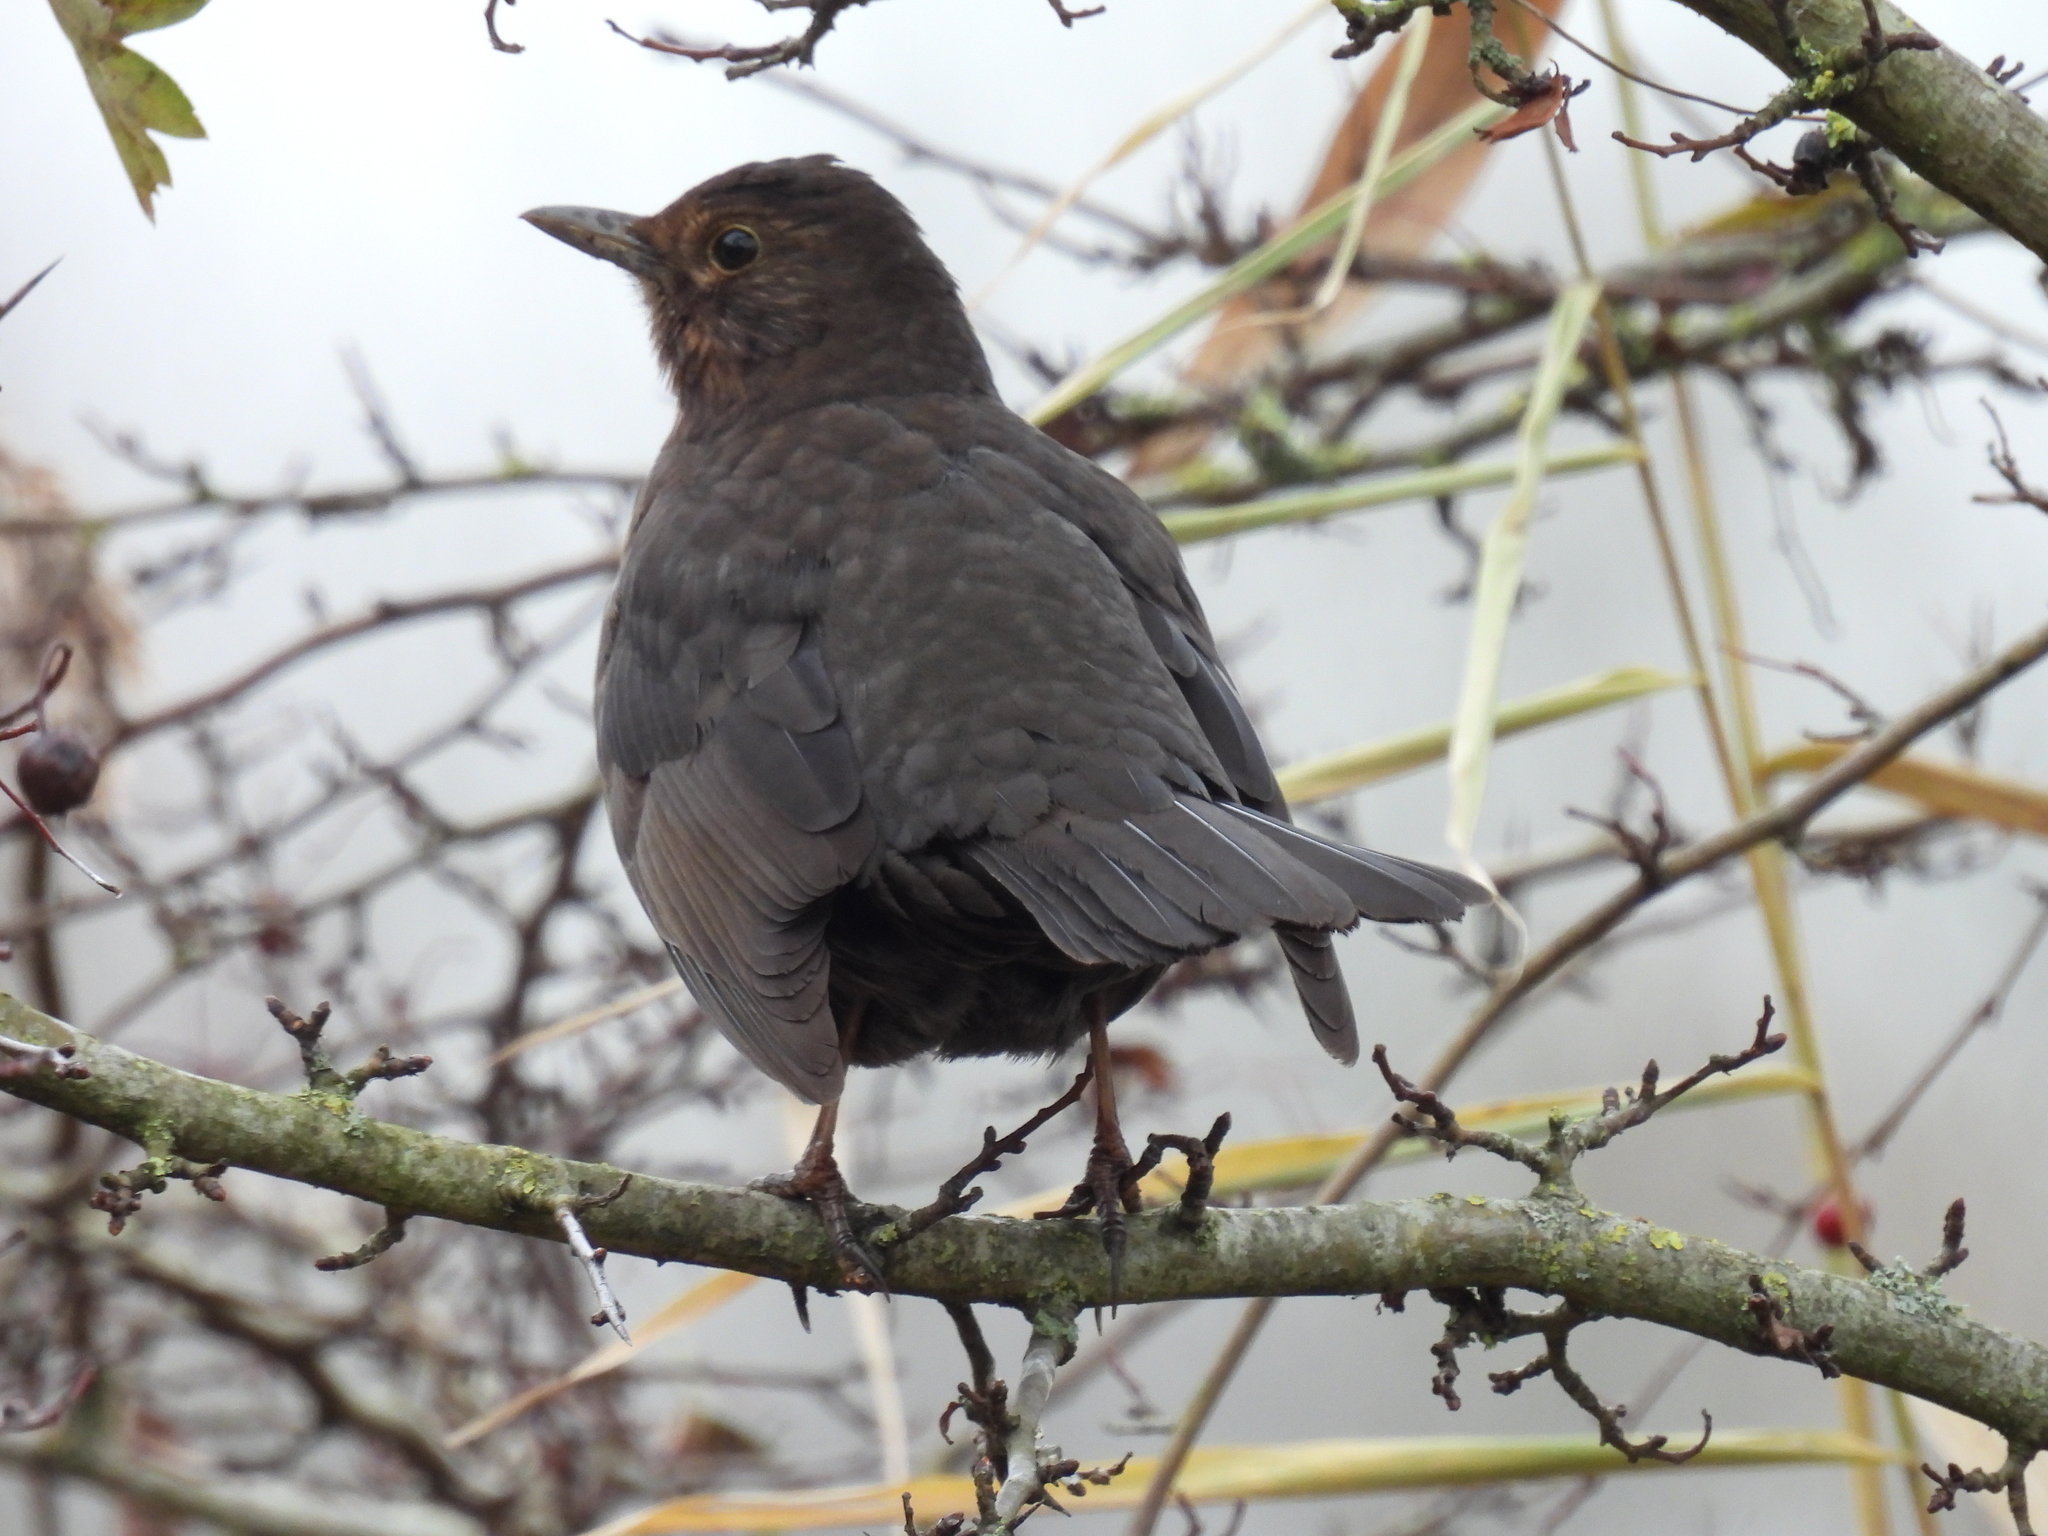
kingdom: Animalia
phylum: Chordata
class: Aves
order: Passeriformes
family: Turdidae
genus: Turdus
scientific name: Turdus merula
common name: Common blackbird
